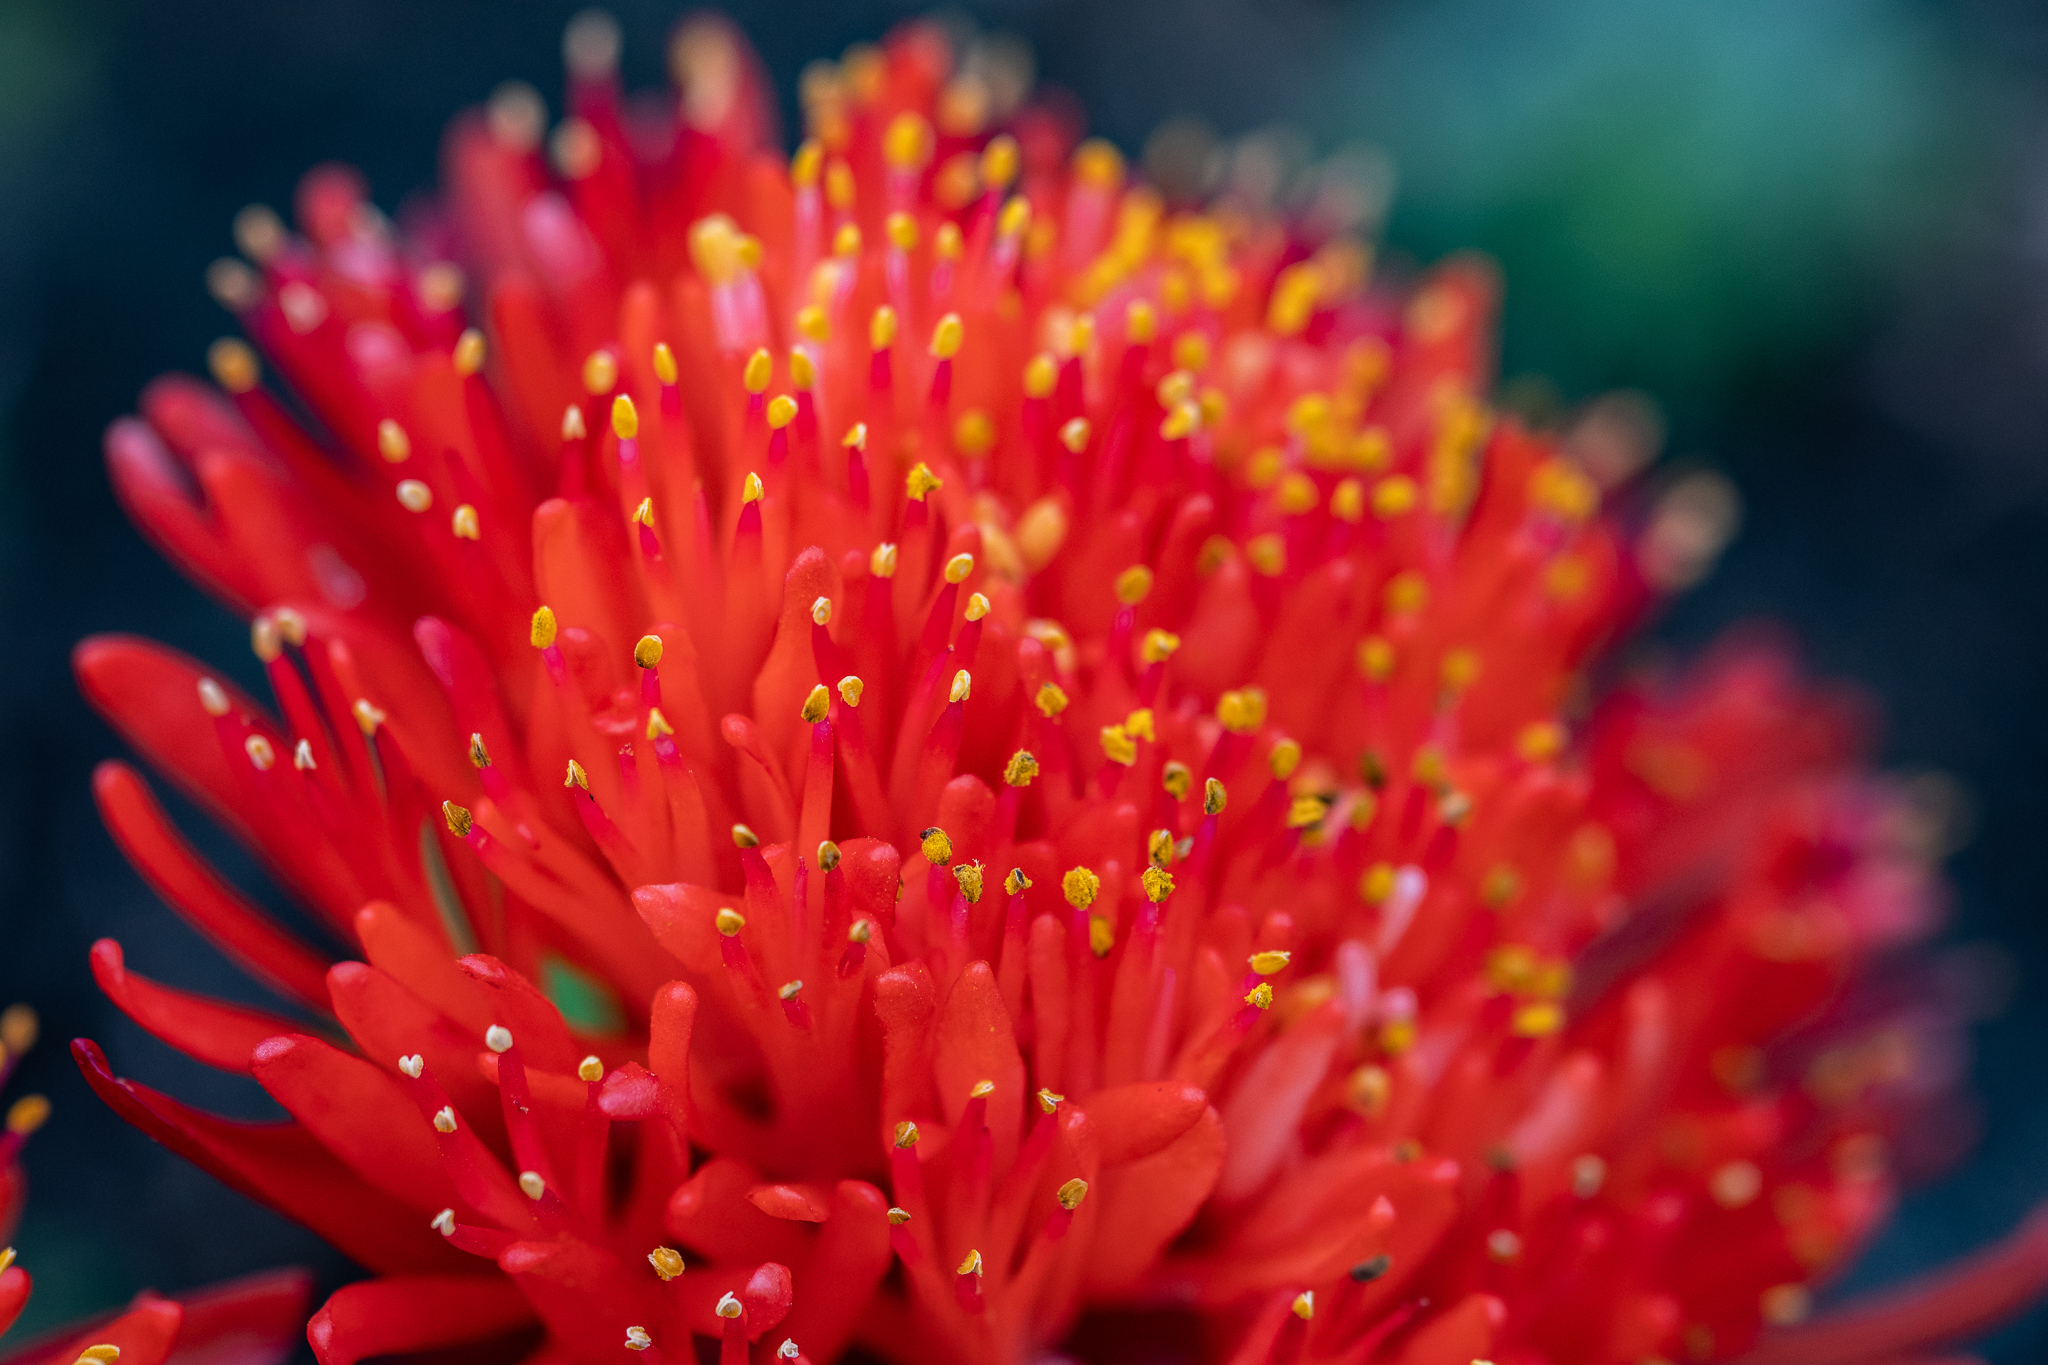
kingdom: Plantae
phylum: Tracheophyta
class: Liliopsida
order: Asparagales
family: Amaryllidaceae
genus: Haemanthus
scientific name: Haemanthus canaliculatus
